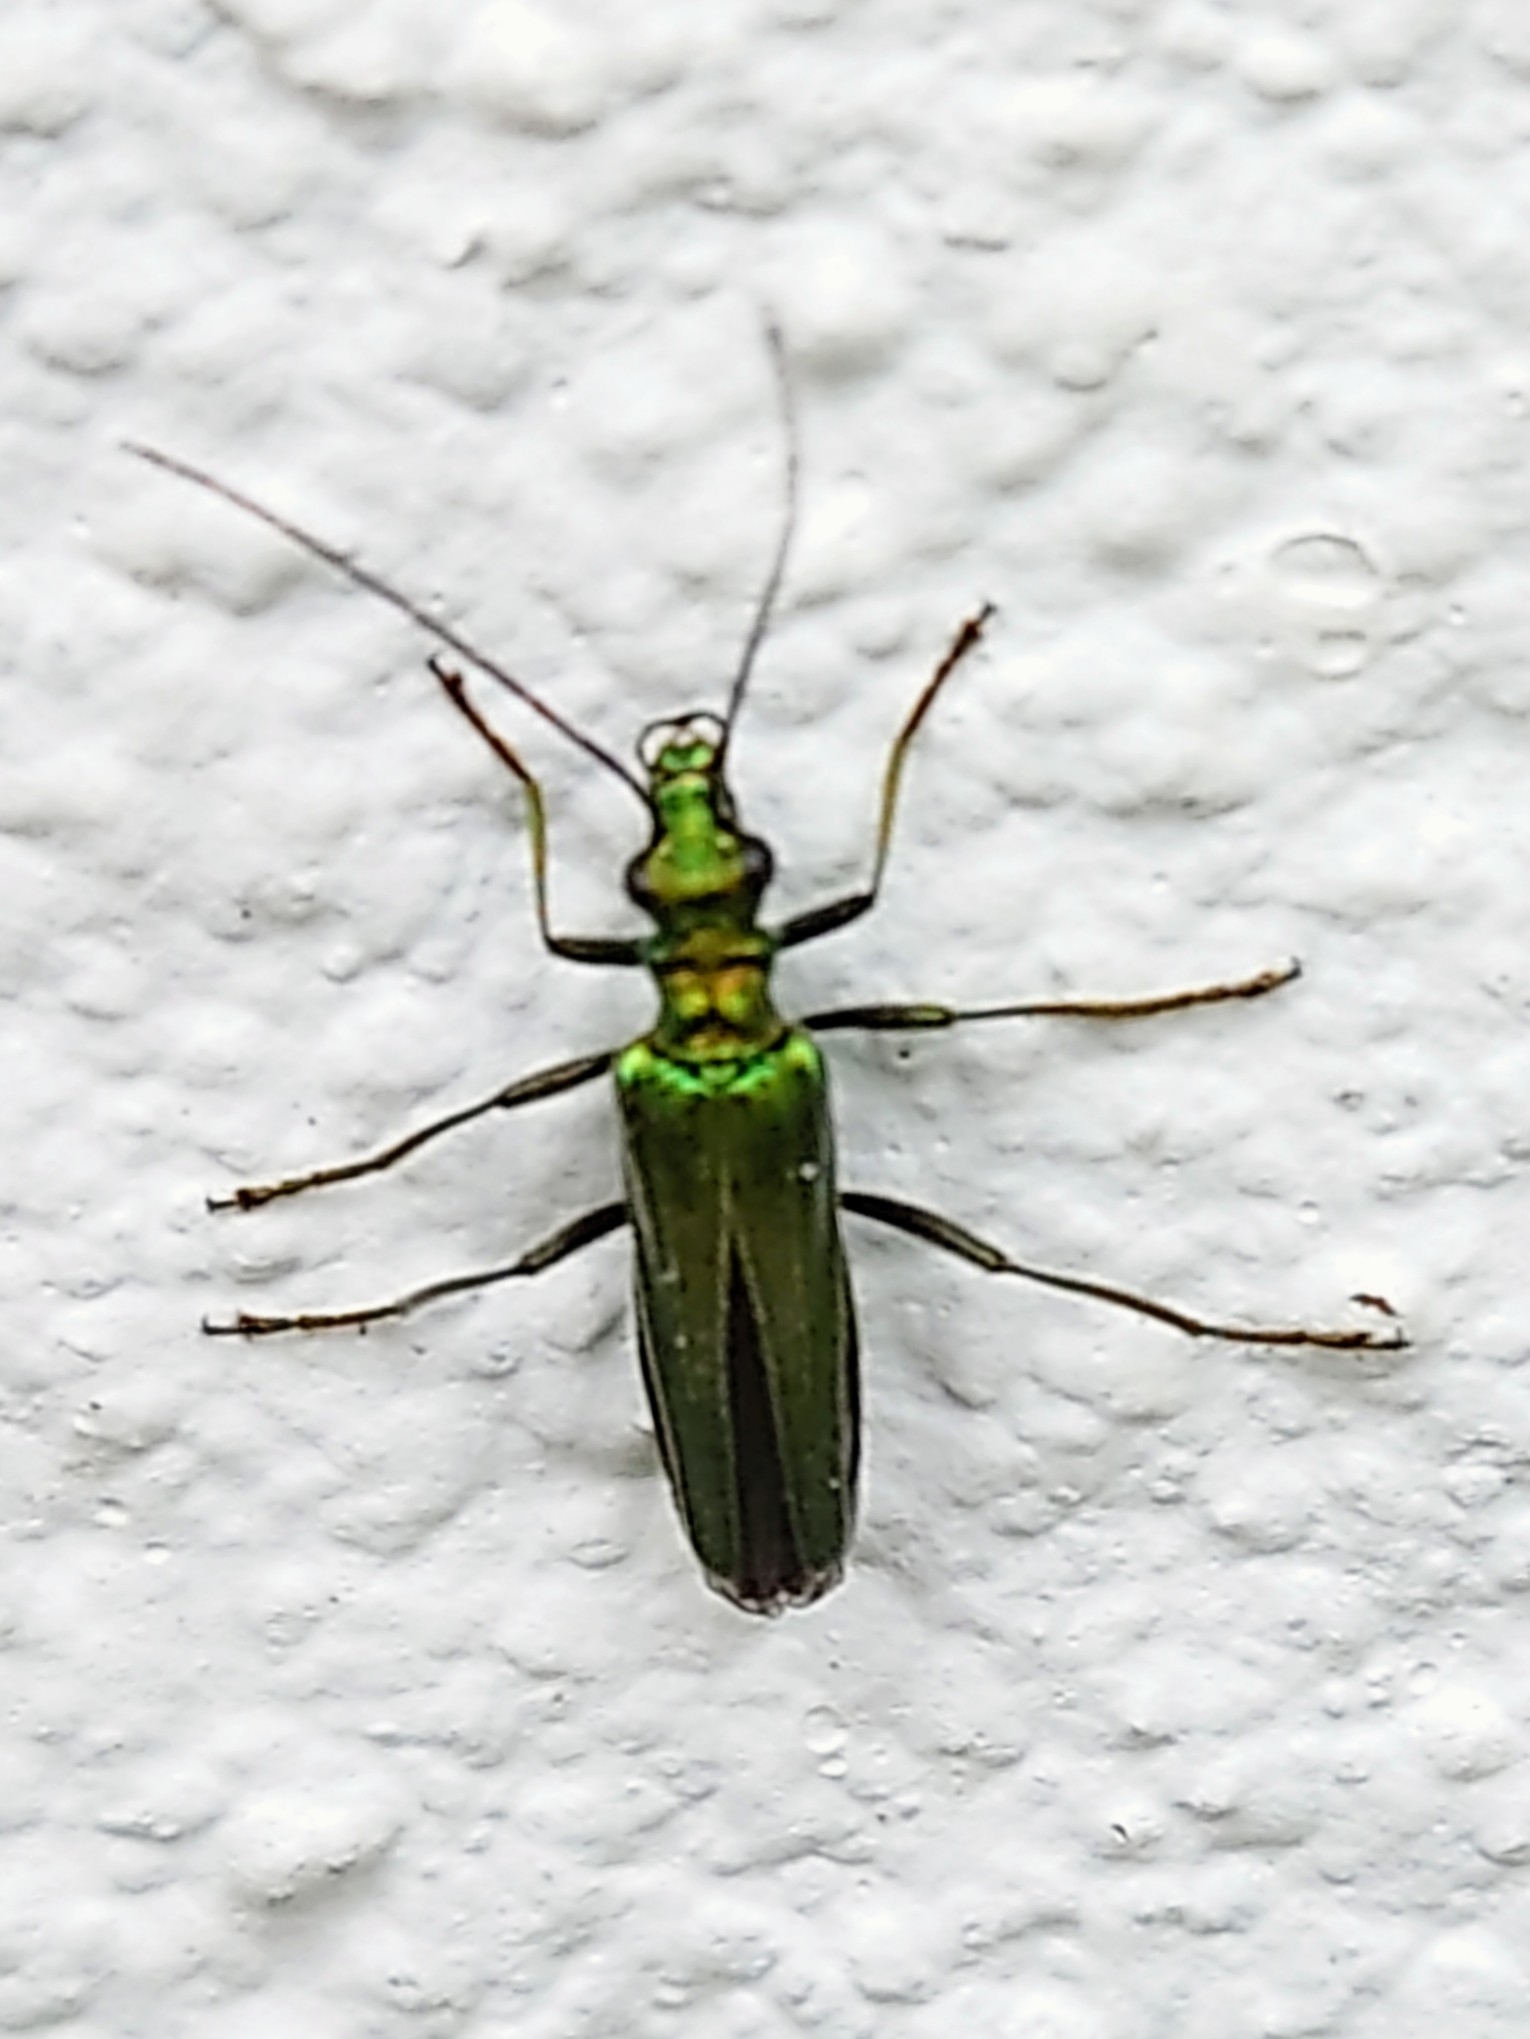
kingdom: Animalia
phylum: Arthropoda
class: Insecta
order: Coleoptera
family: Oedemeridae
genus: Oedemera
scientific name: Oedemera nobilis
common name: Swollen-thighed beetle
